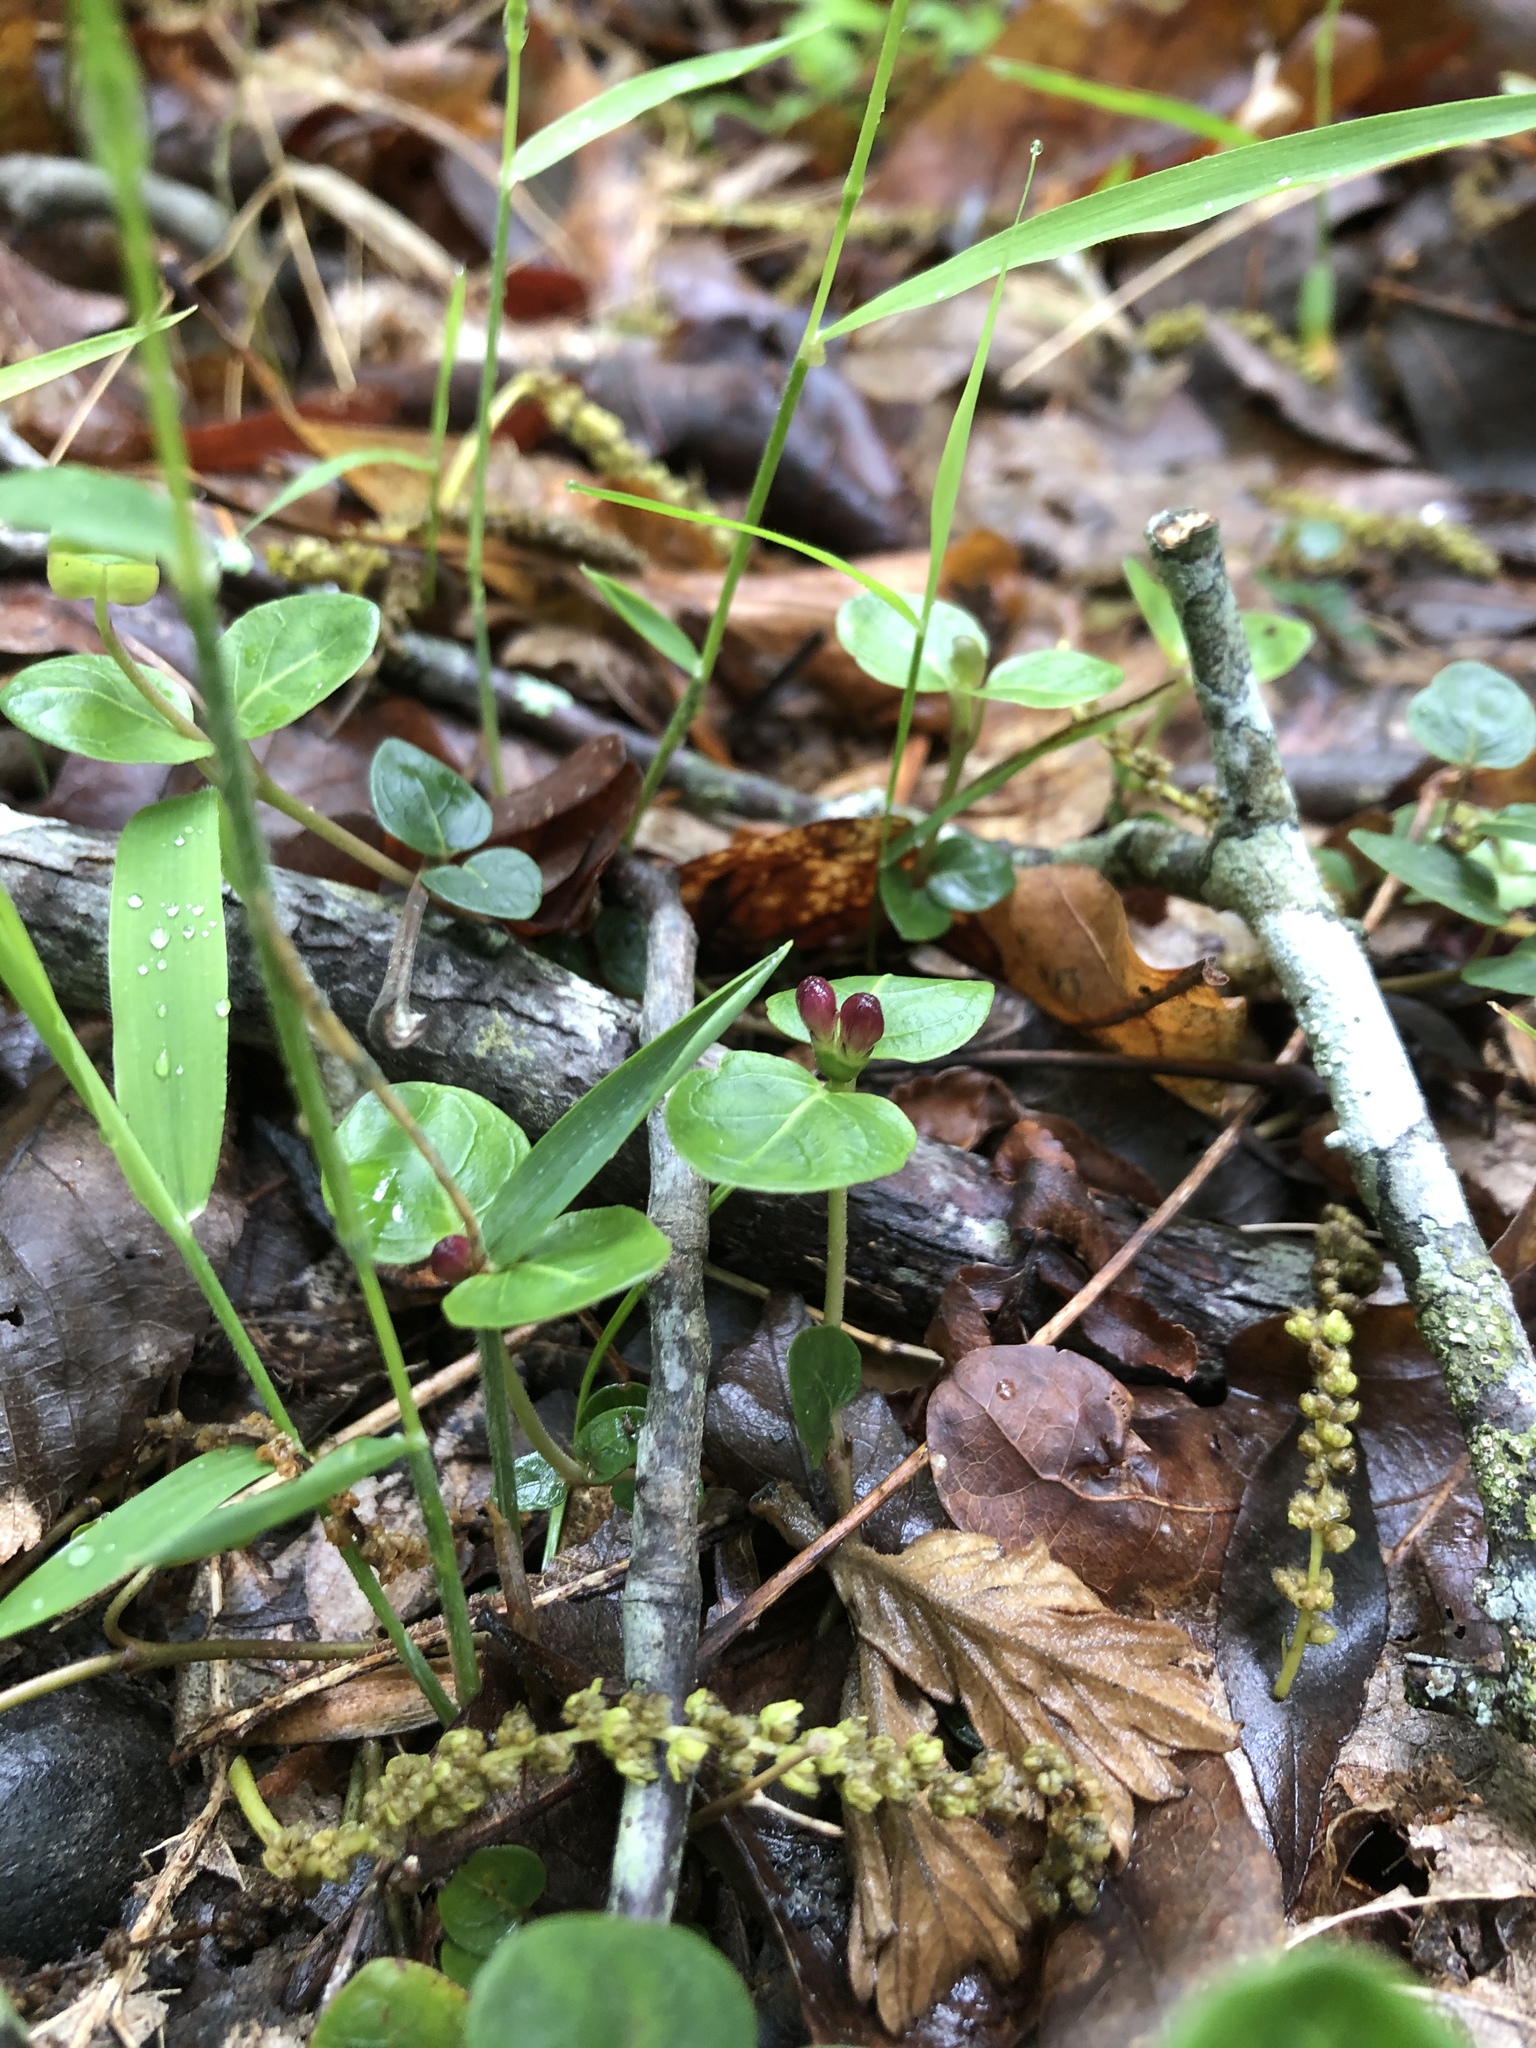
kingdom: Plantae
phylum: Tracheophyta
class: Magnoliopsida
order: Gentianales
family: Rubiaceae
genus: Mitchella
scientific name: Mitchella repens
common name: Partridge-berry
